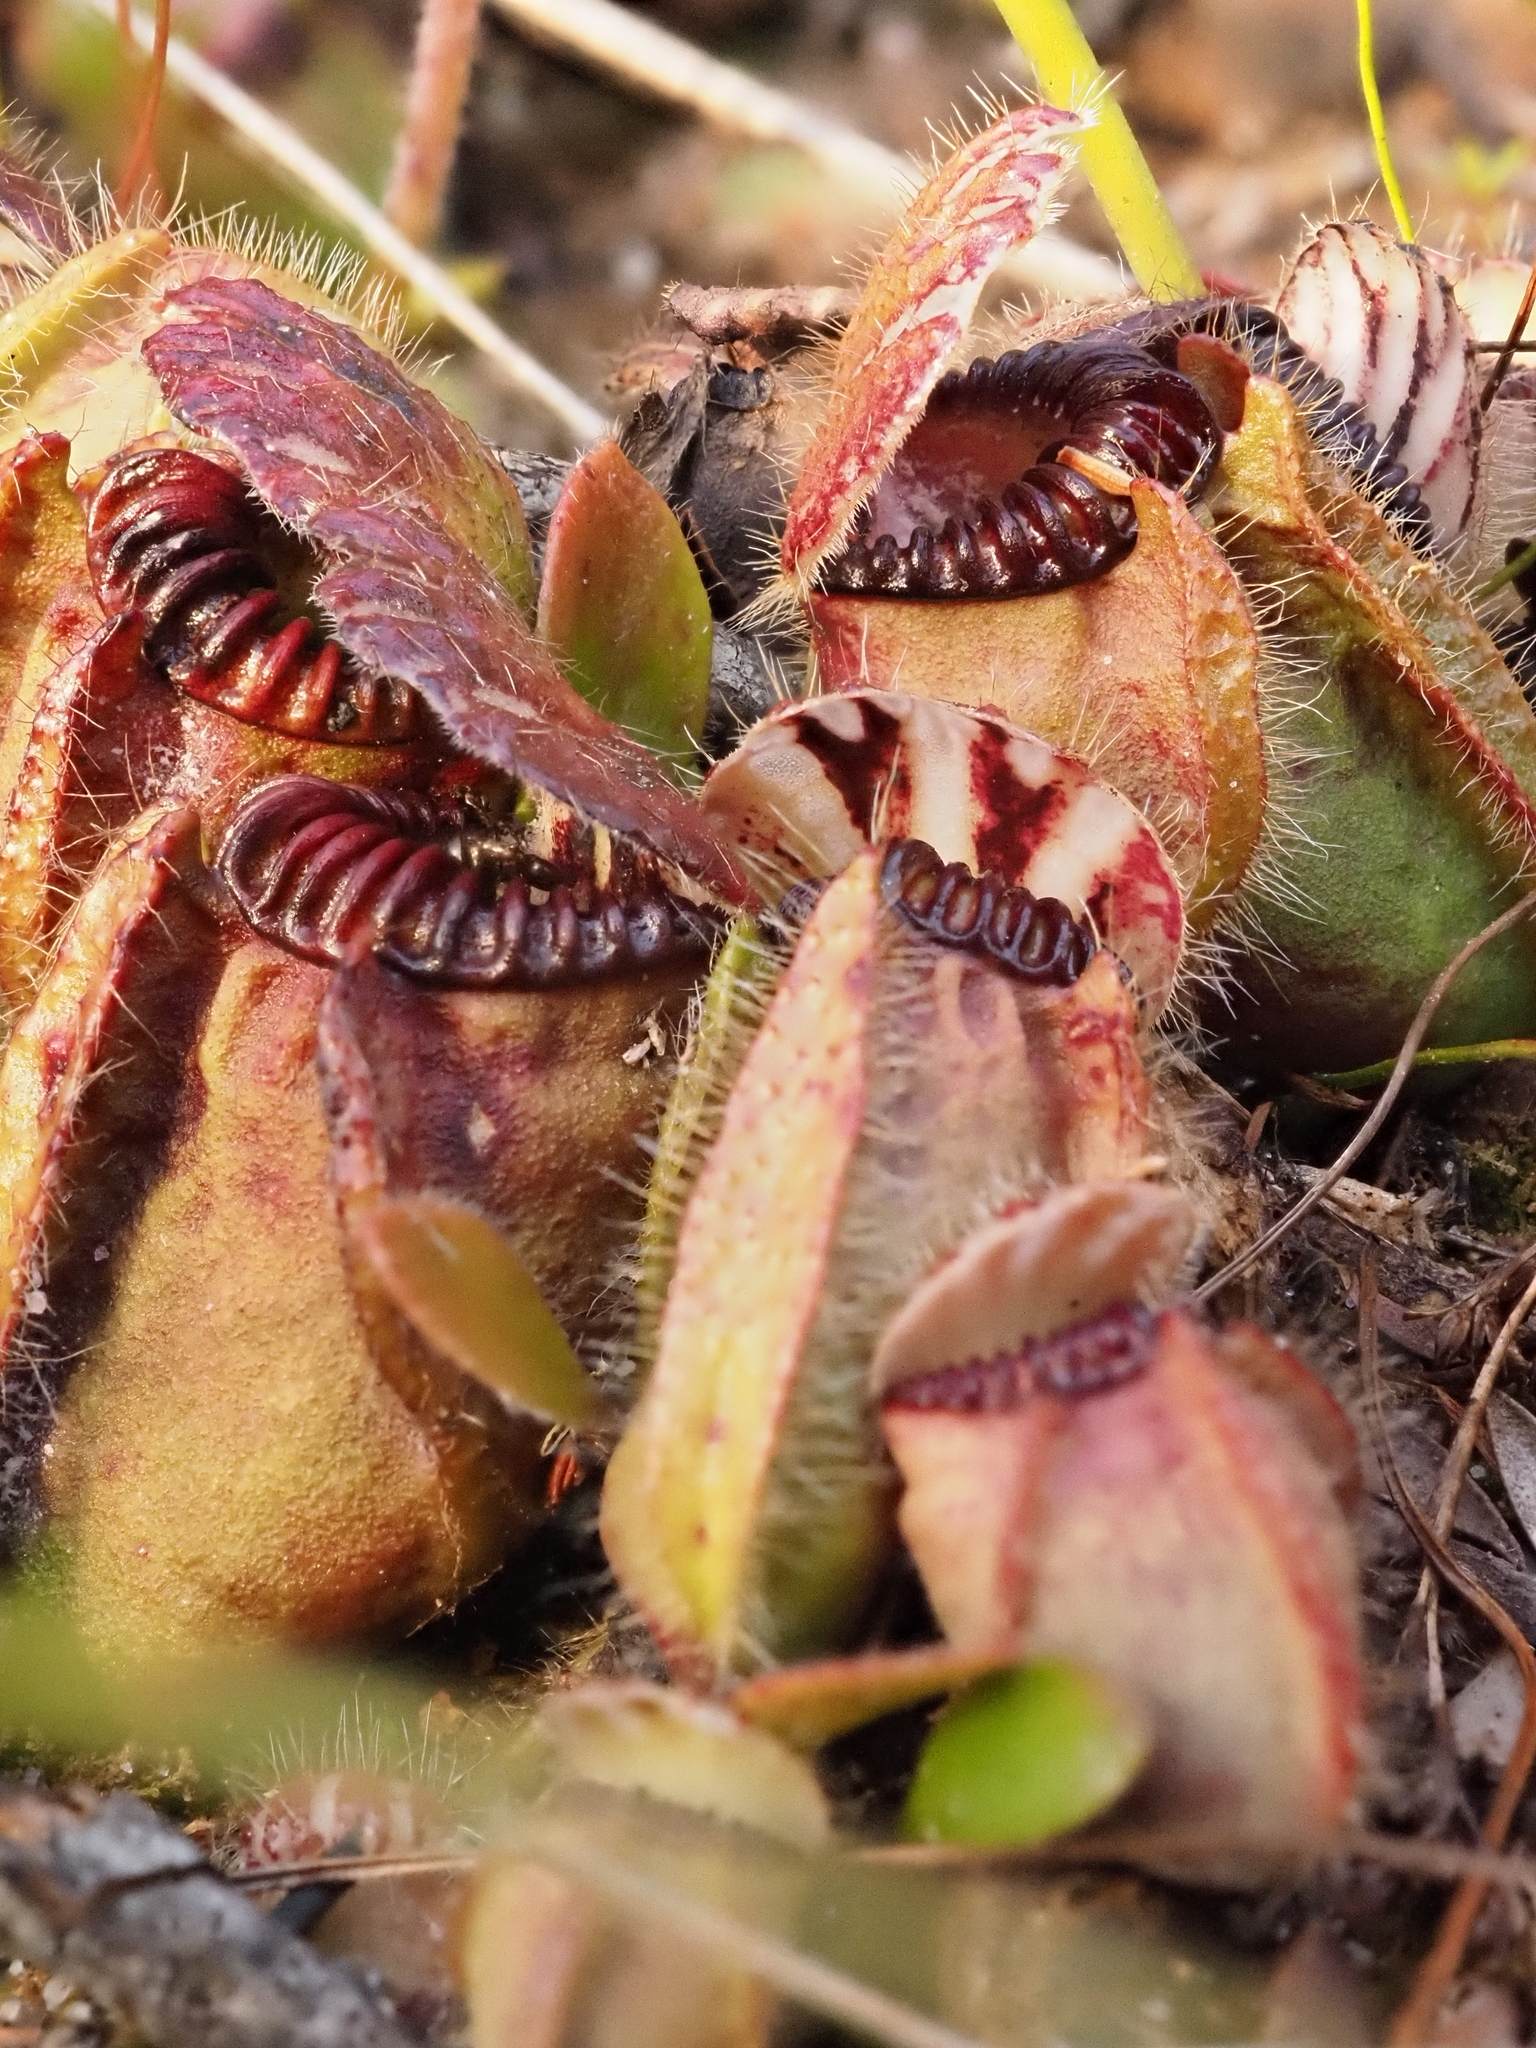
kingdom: Plantae
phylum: Tracheophyta
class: Magnoliopsida
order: Oxalidales
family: Cephalotaceae
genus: Cephalotus
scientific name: Cephalotus follicularis
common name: Australian pitcher plant
